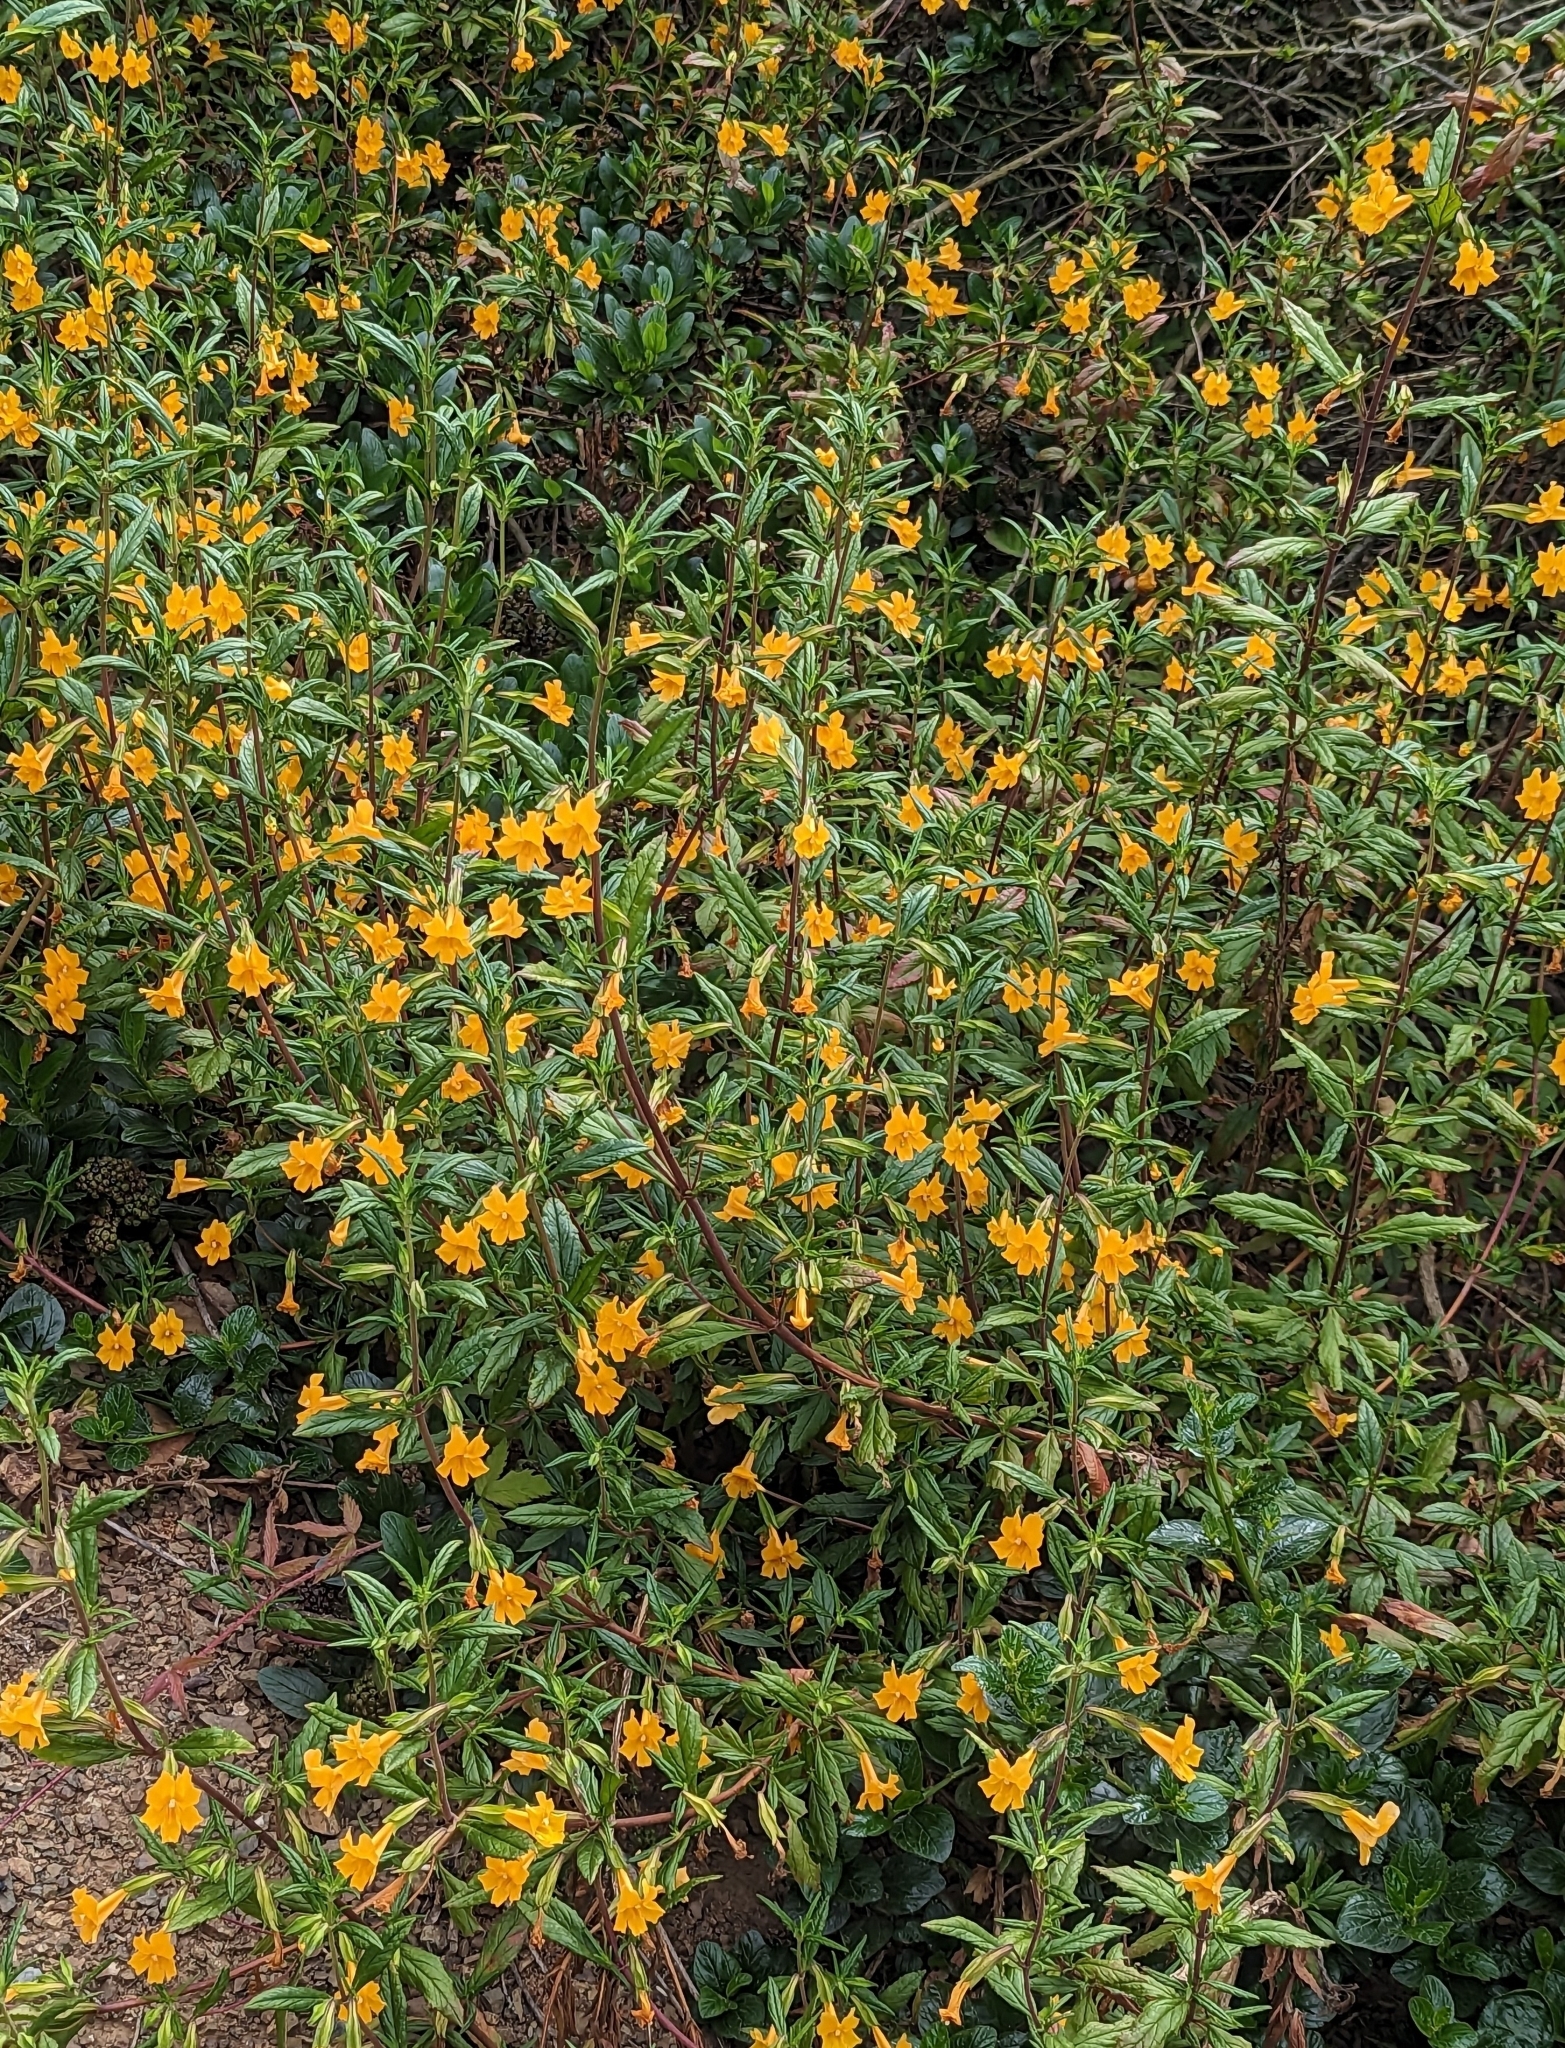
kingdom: Plantae
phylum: Tracheophyta
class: Magnoliopsida
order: Lamiales
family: Phrymaceae
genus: Diplacus
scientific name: Diplacus aurantiacus
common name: Bush monkey-flower
